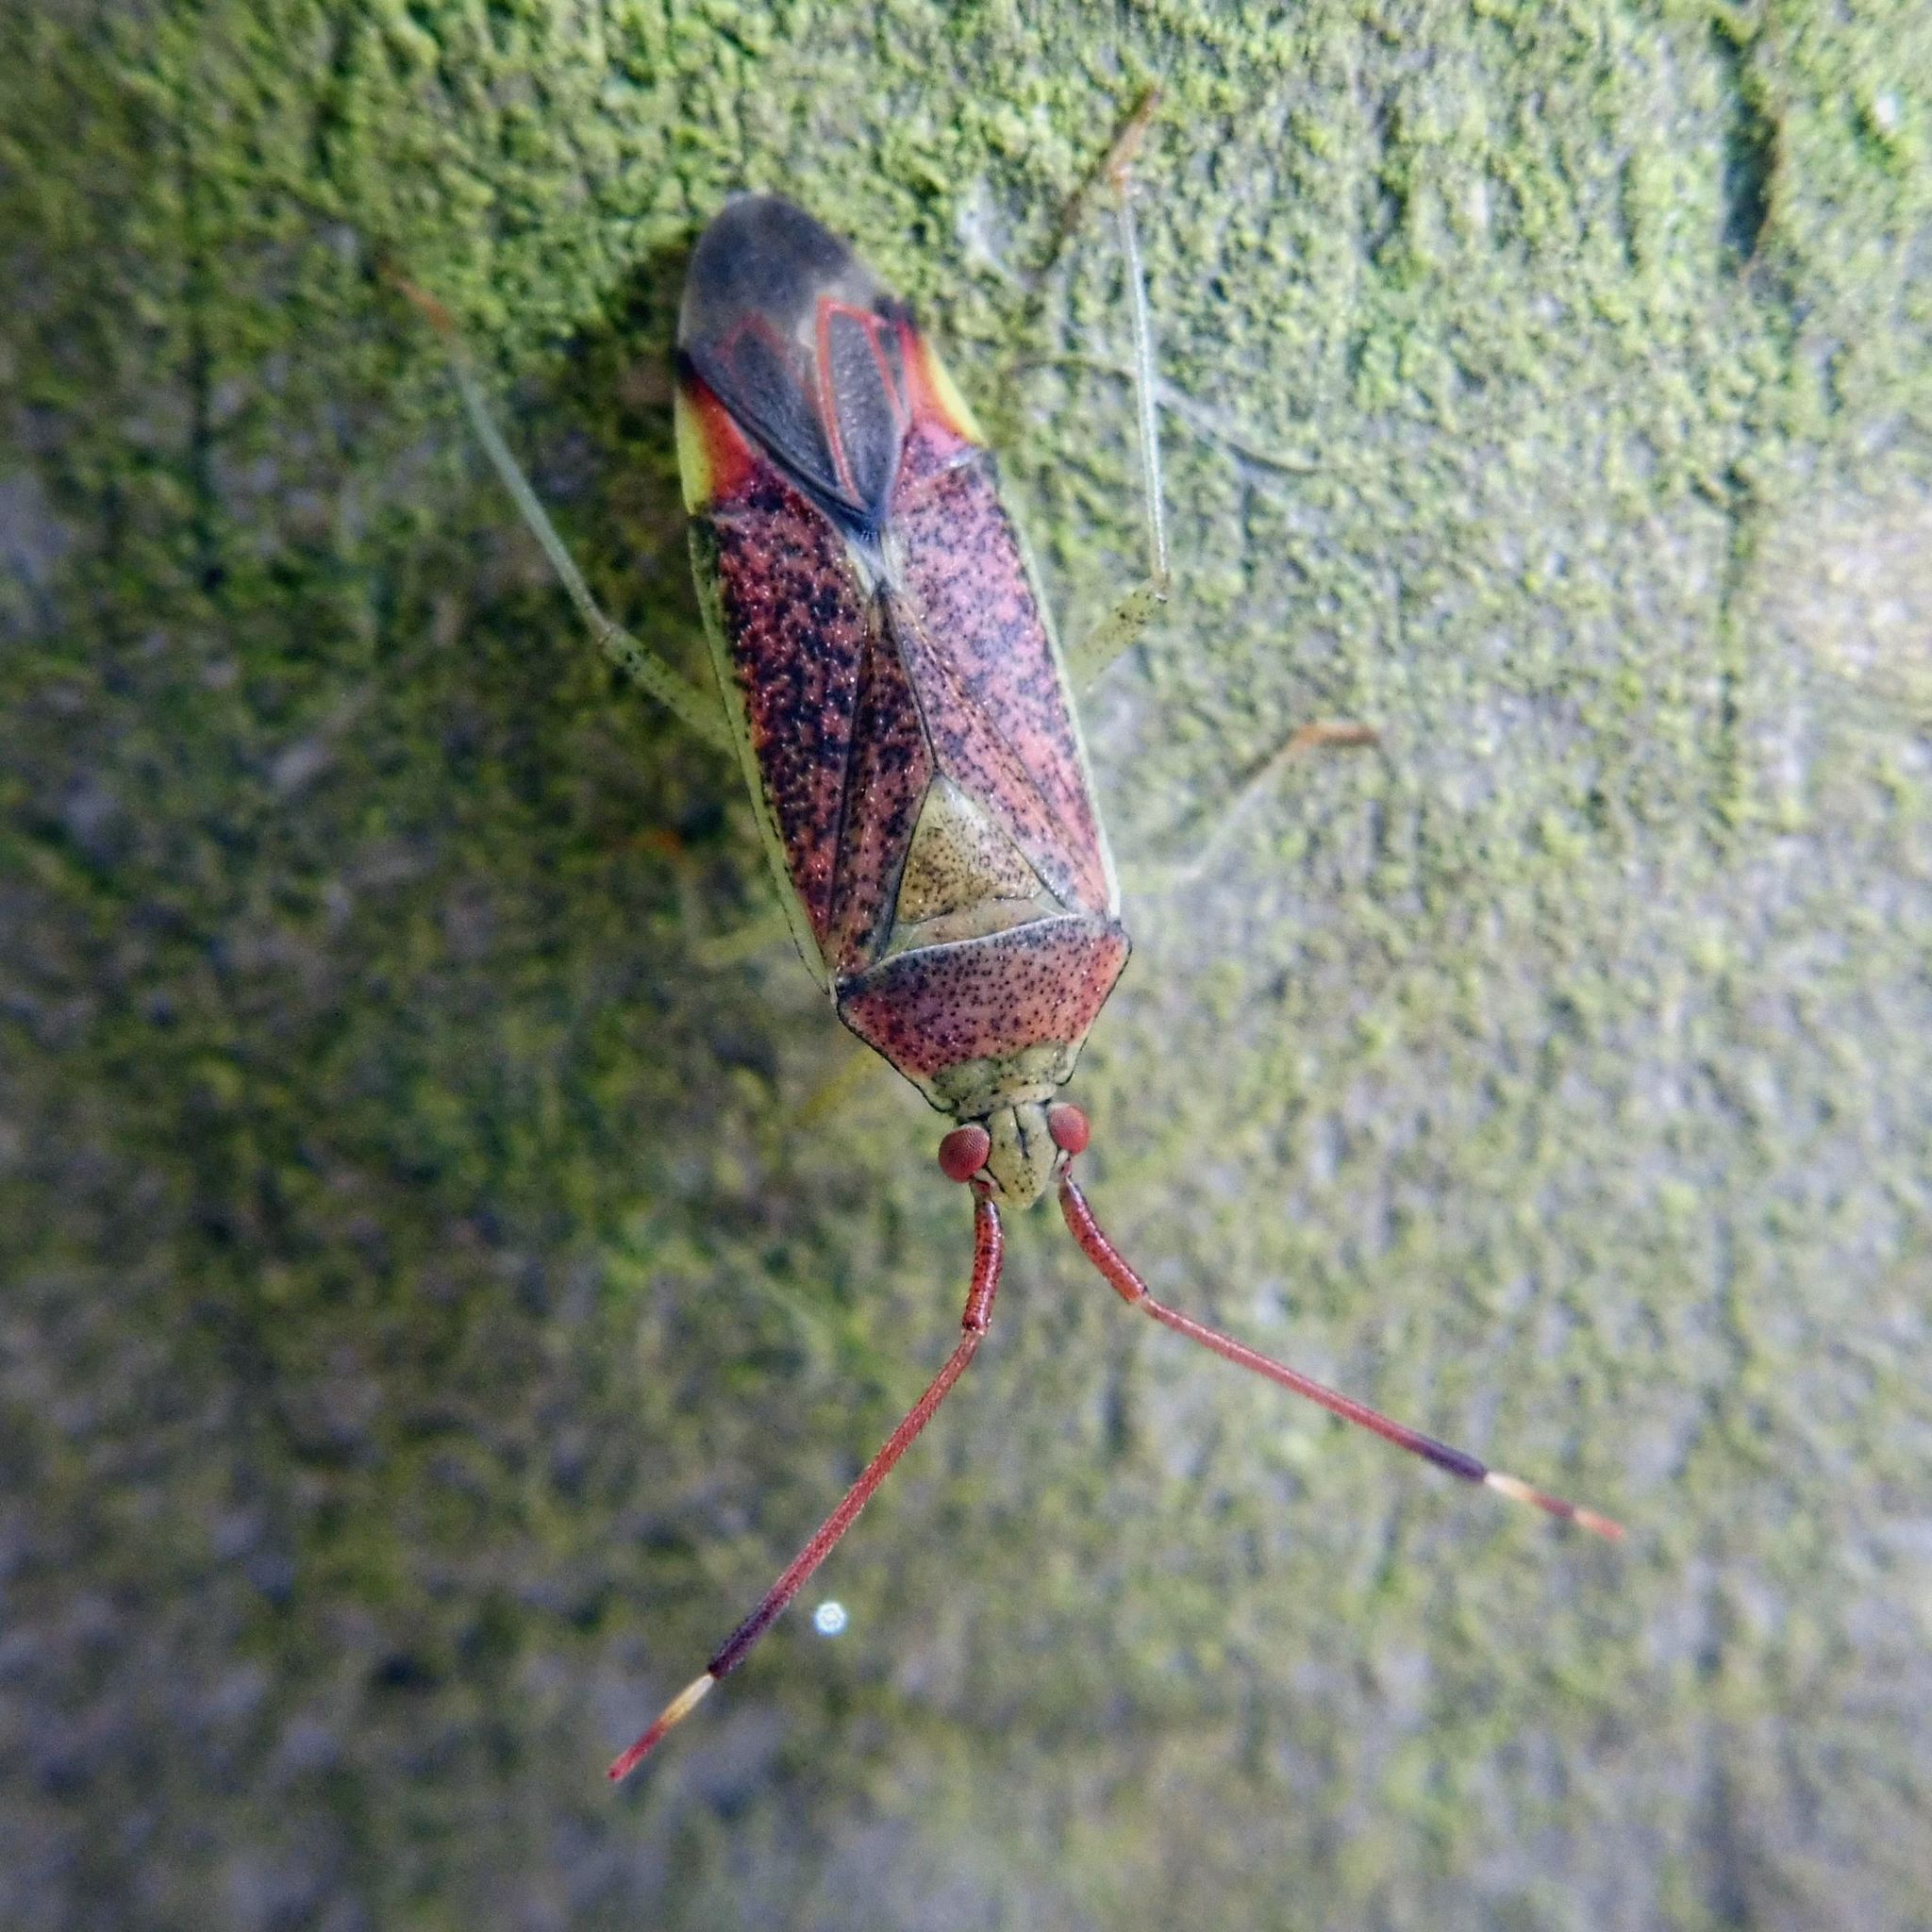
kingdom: Animalia
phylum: Arthropoda
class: Insecta
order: Hemiptera
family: Miridae
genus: Pantilius
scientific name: Pantilius tunicatus
